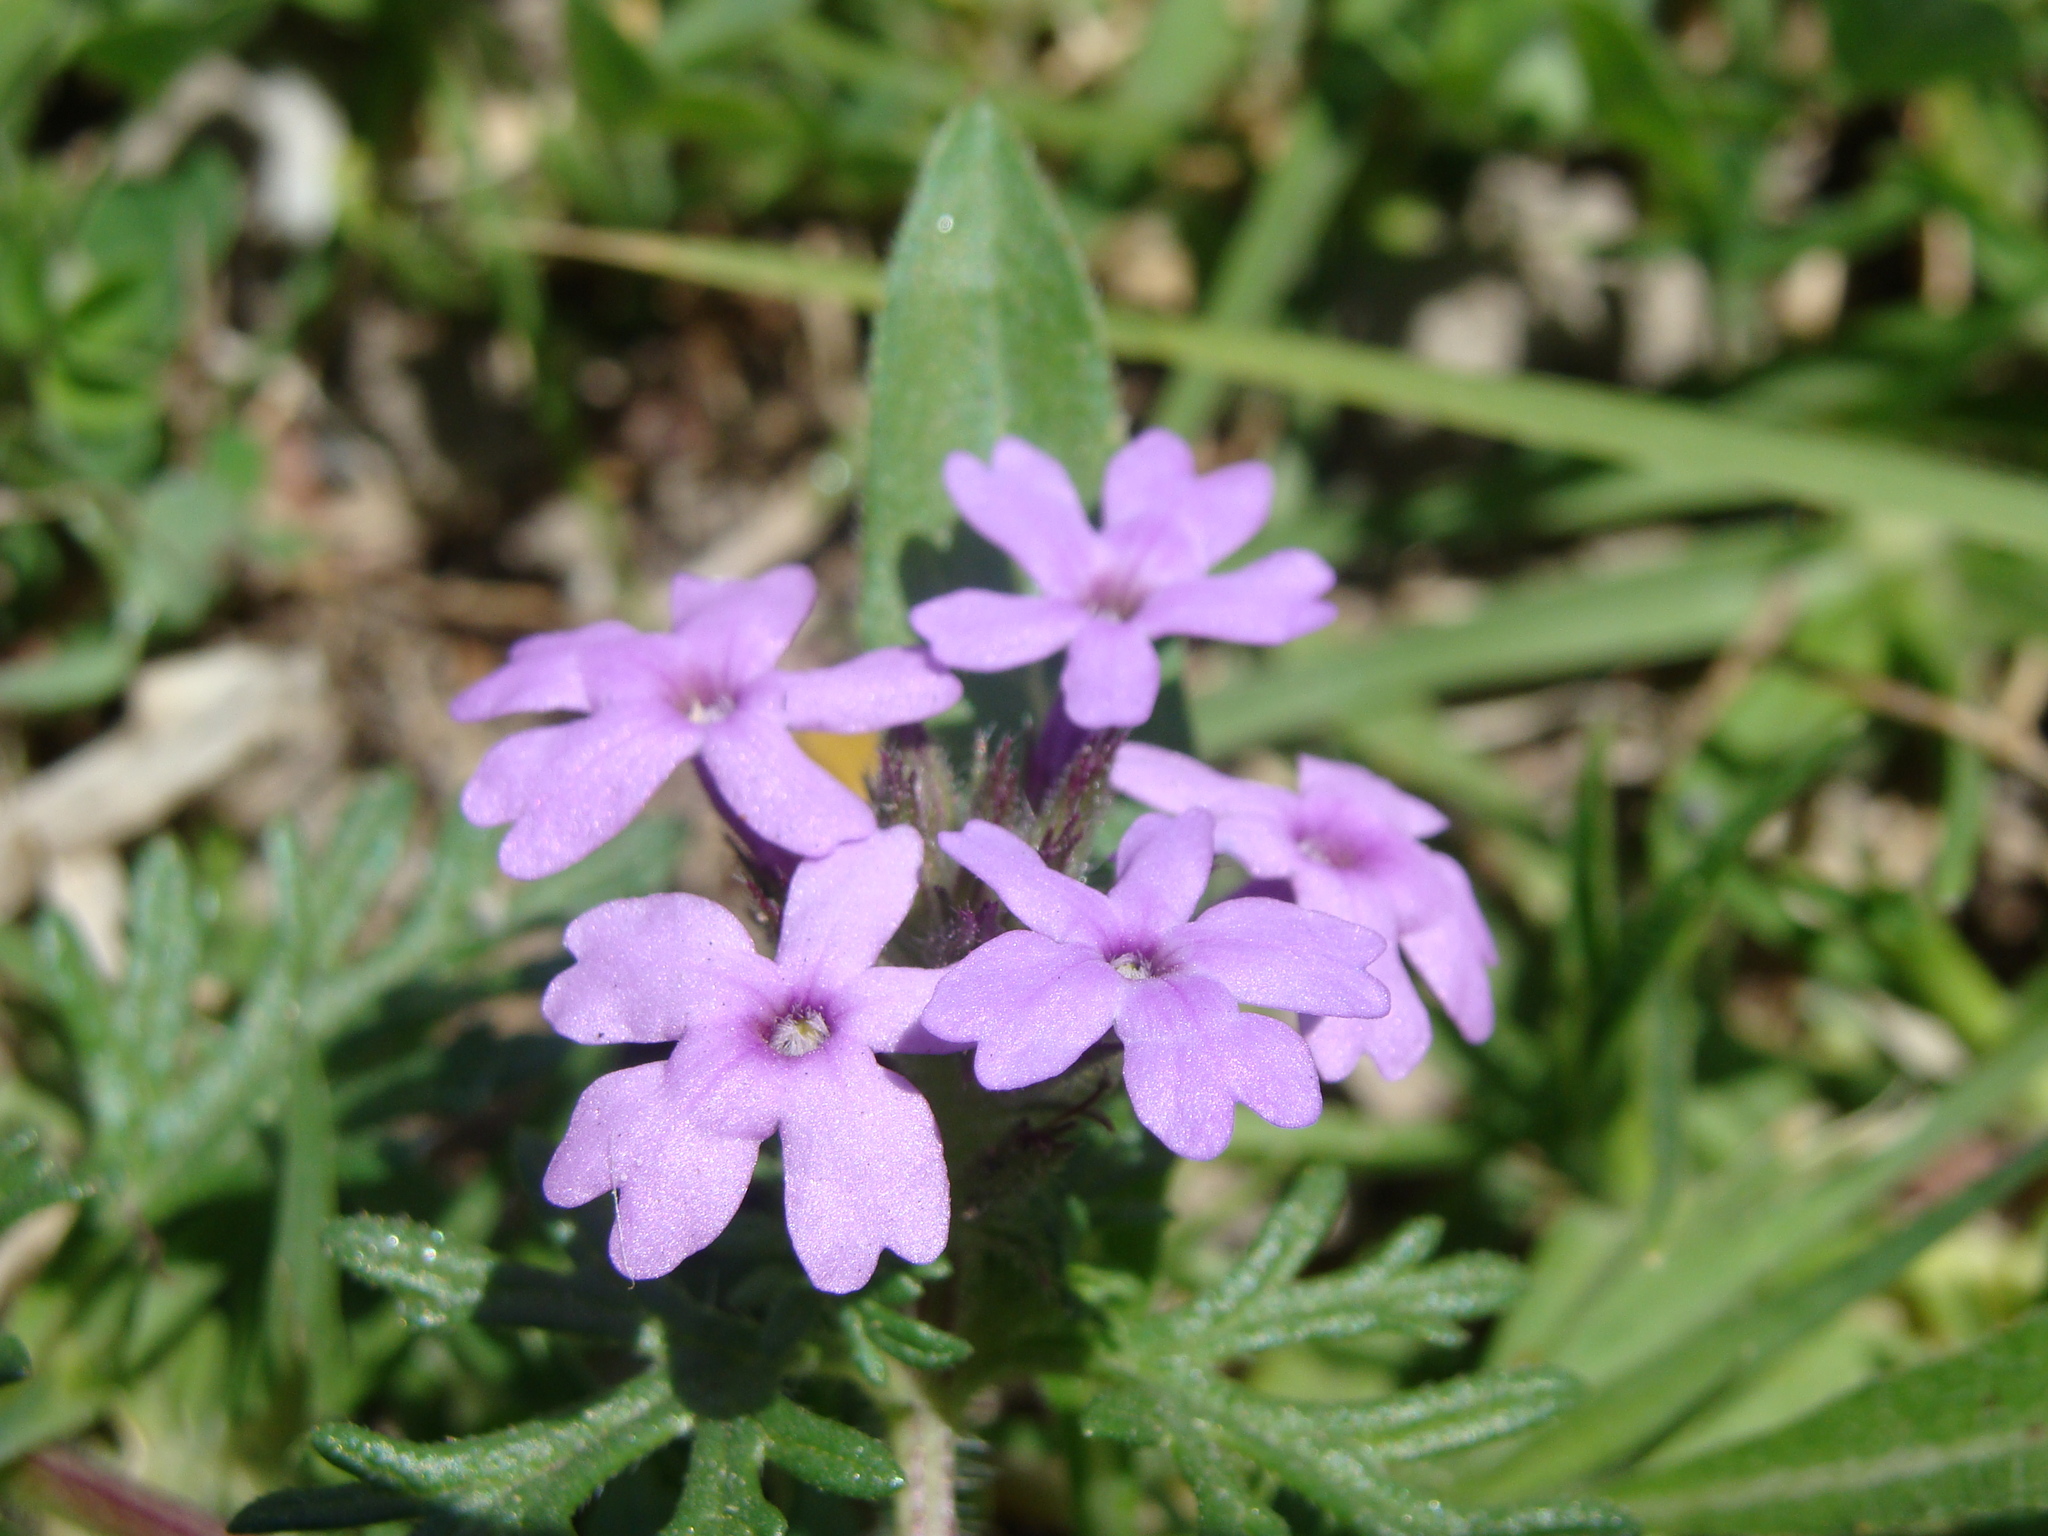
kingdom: Plantae
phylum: Tracheophyta
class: Magnoliopsida
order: Lamiales
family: Verbenaceae
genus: Verbena
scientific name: Verbena bipinnatifida
